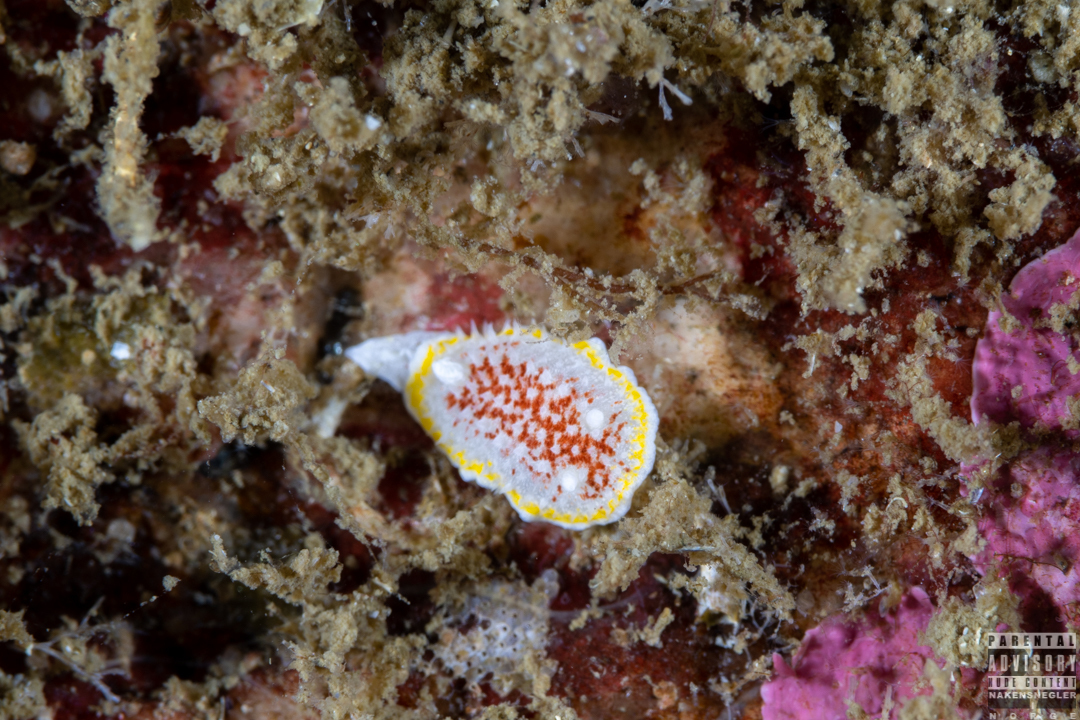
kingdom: Animalia
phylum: Mollusca
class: Gastropoda
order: Nudibranchia
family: Calycidorididae
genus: Diaphorodoris
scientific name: Diaphorodoris luteocincta
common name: Fried egg nudibranch
